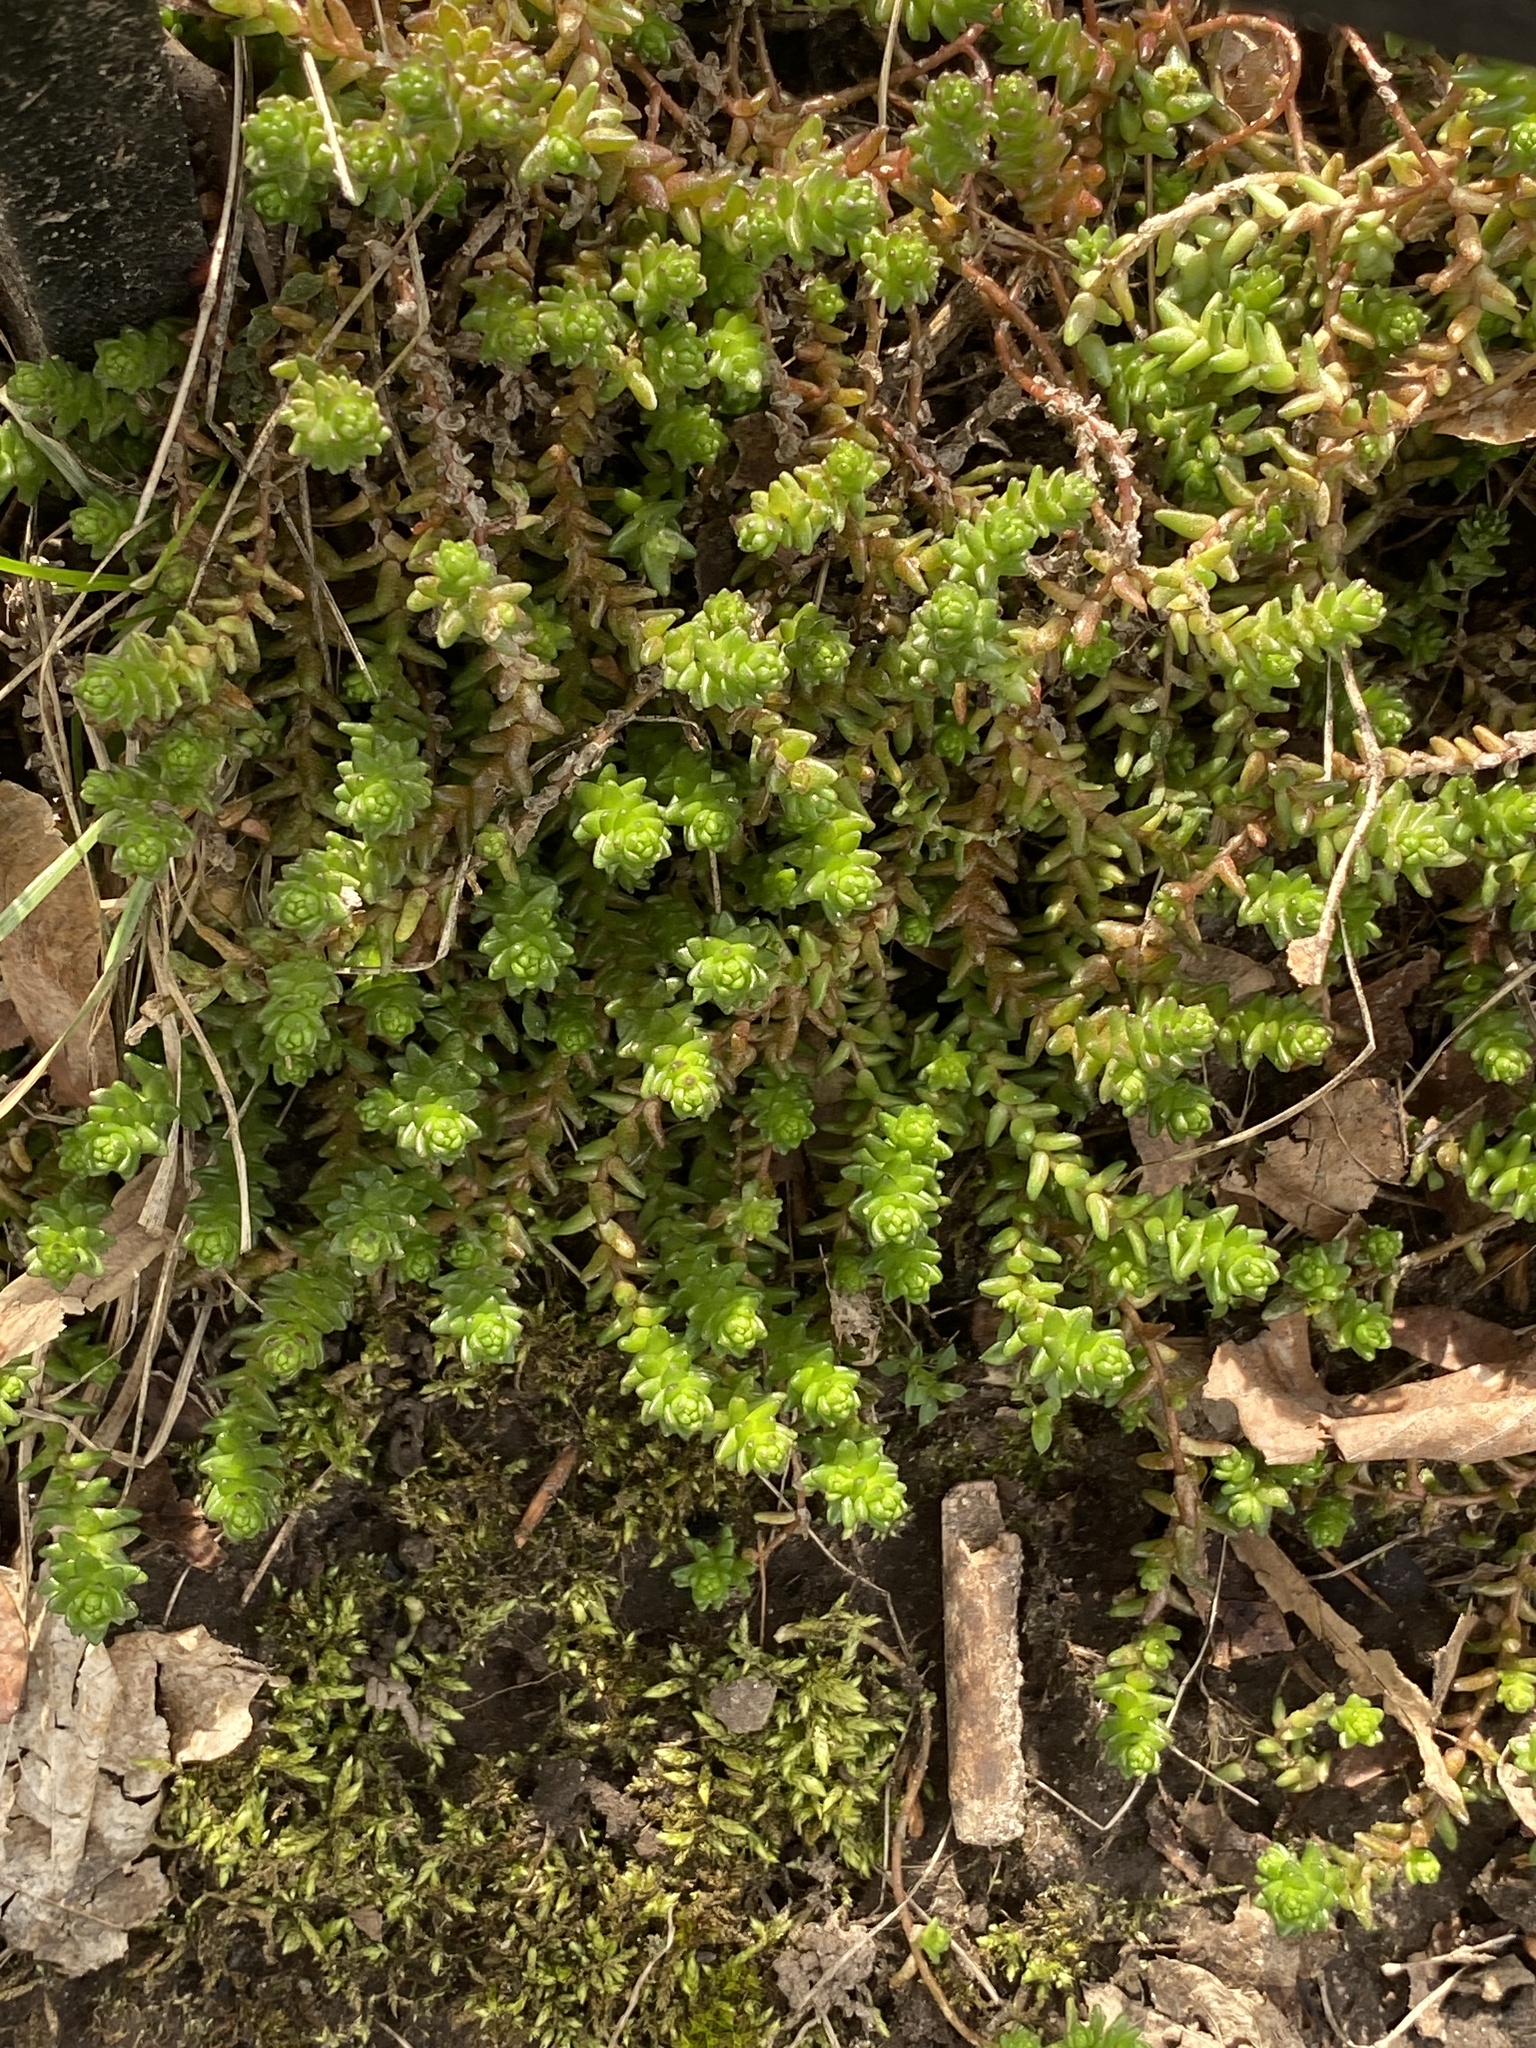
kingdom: Plantae
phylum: Tracheophyta
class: Magnoliopsida
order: Saxifragales
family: Crassulaceae
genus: Sedum
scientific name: Sedum acre
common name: Biting stonecrop
